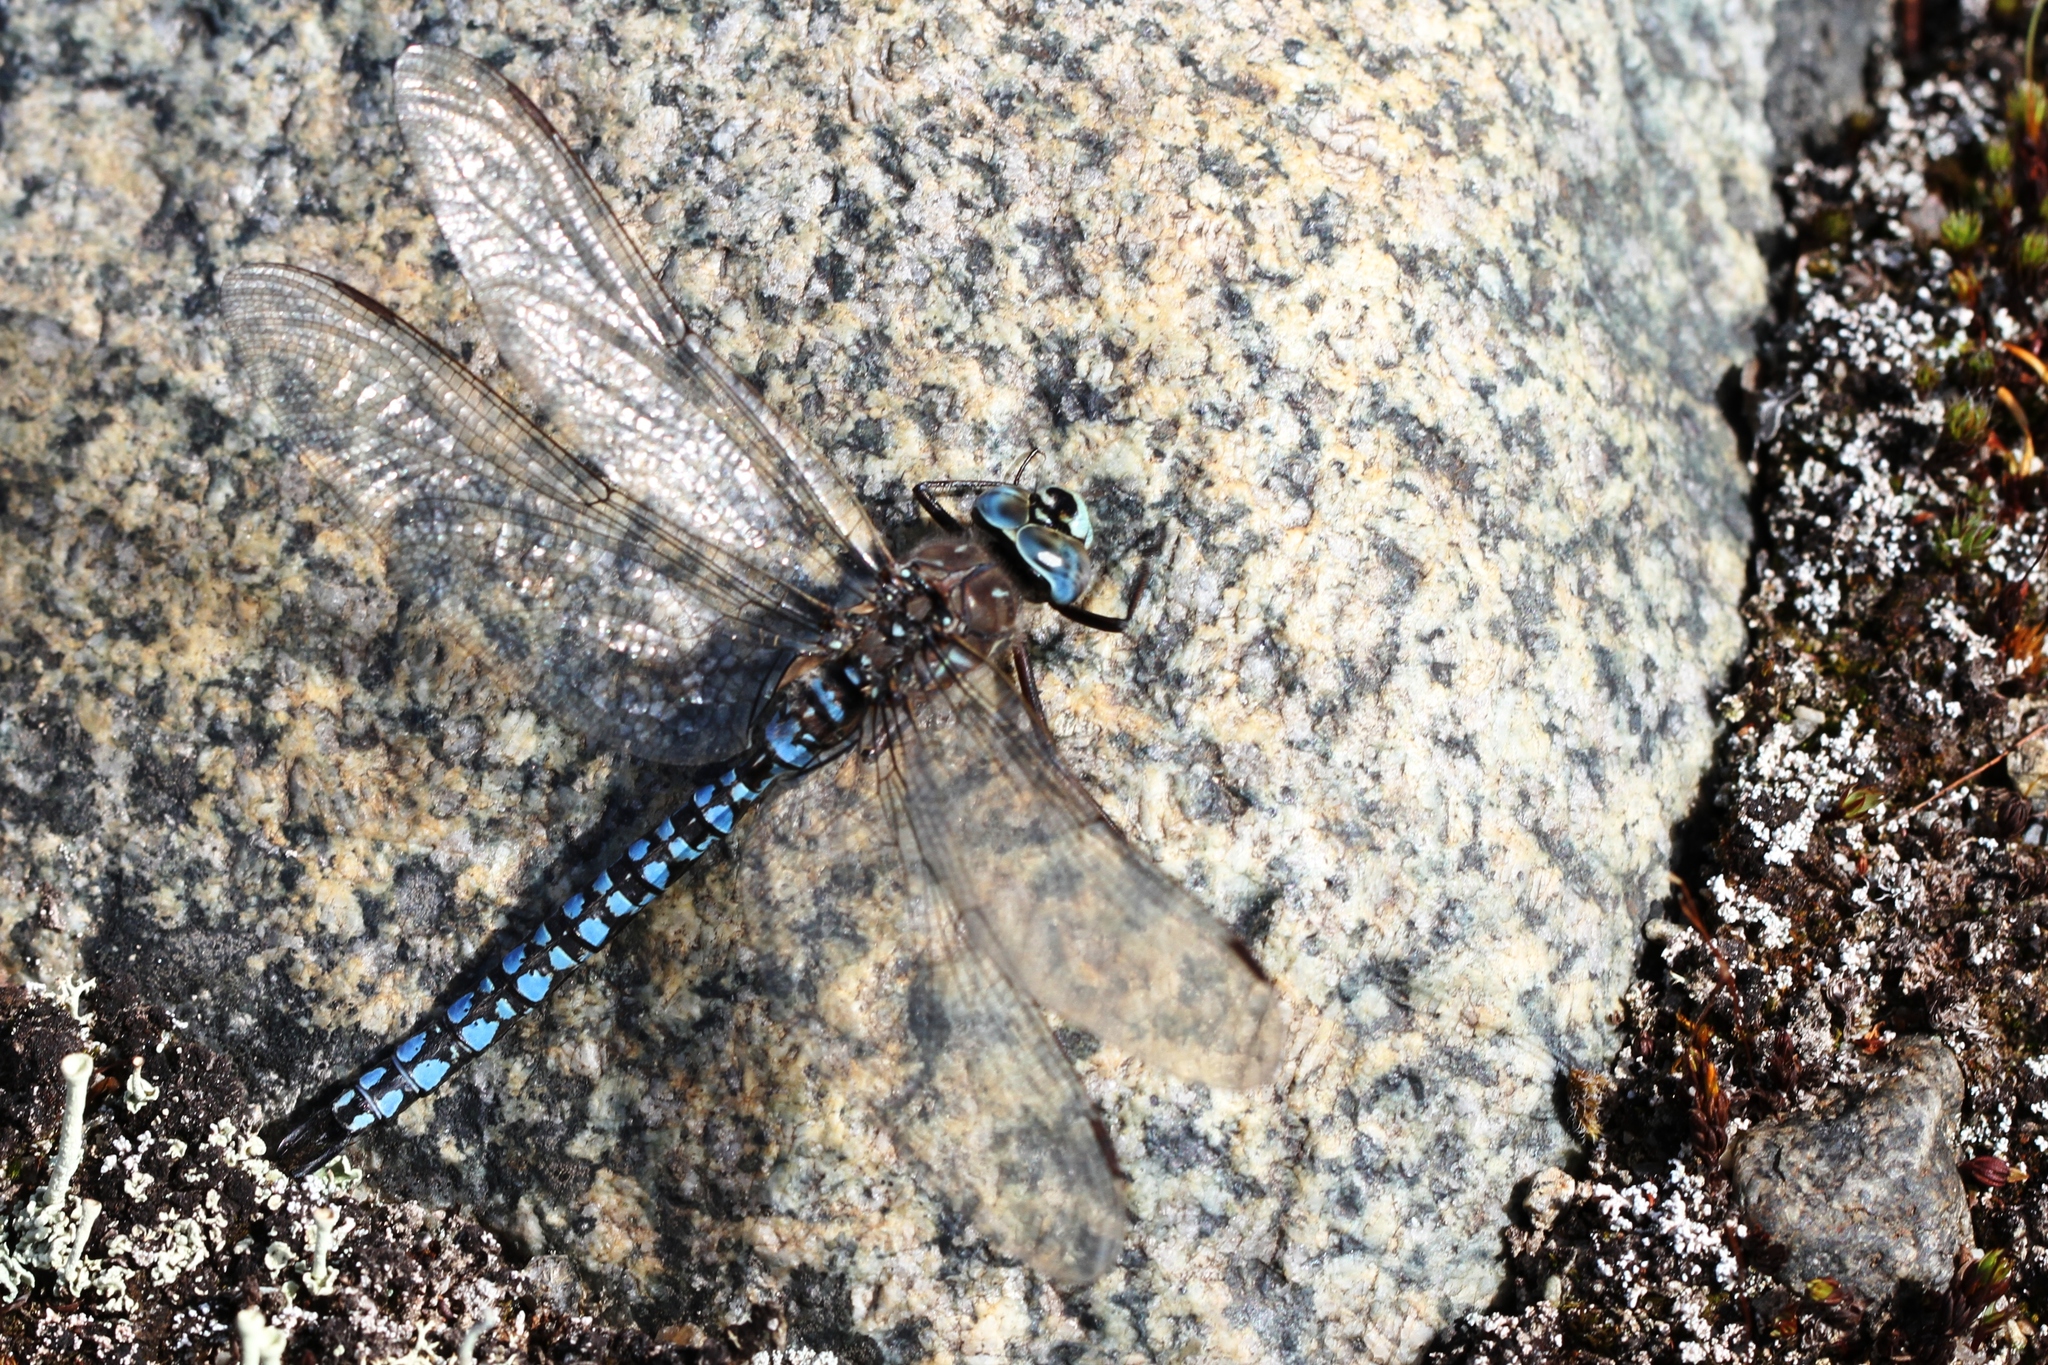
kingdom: Animalia
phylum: Arthropoda
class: Insecta
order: Odonata
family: Aeshnidae
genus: Aeshna
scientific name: Aeshna septentrionalis
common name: Azure darner
